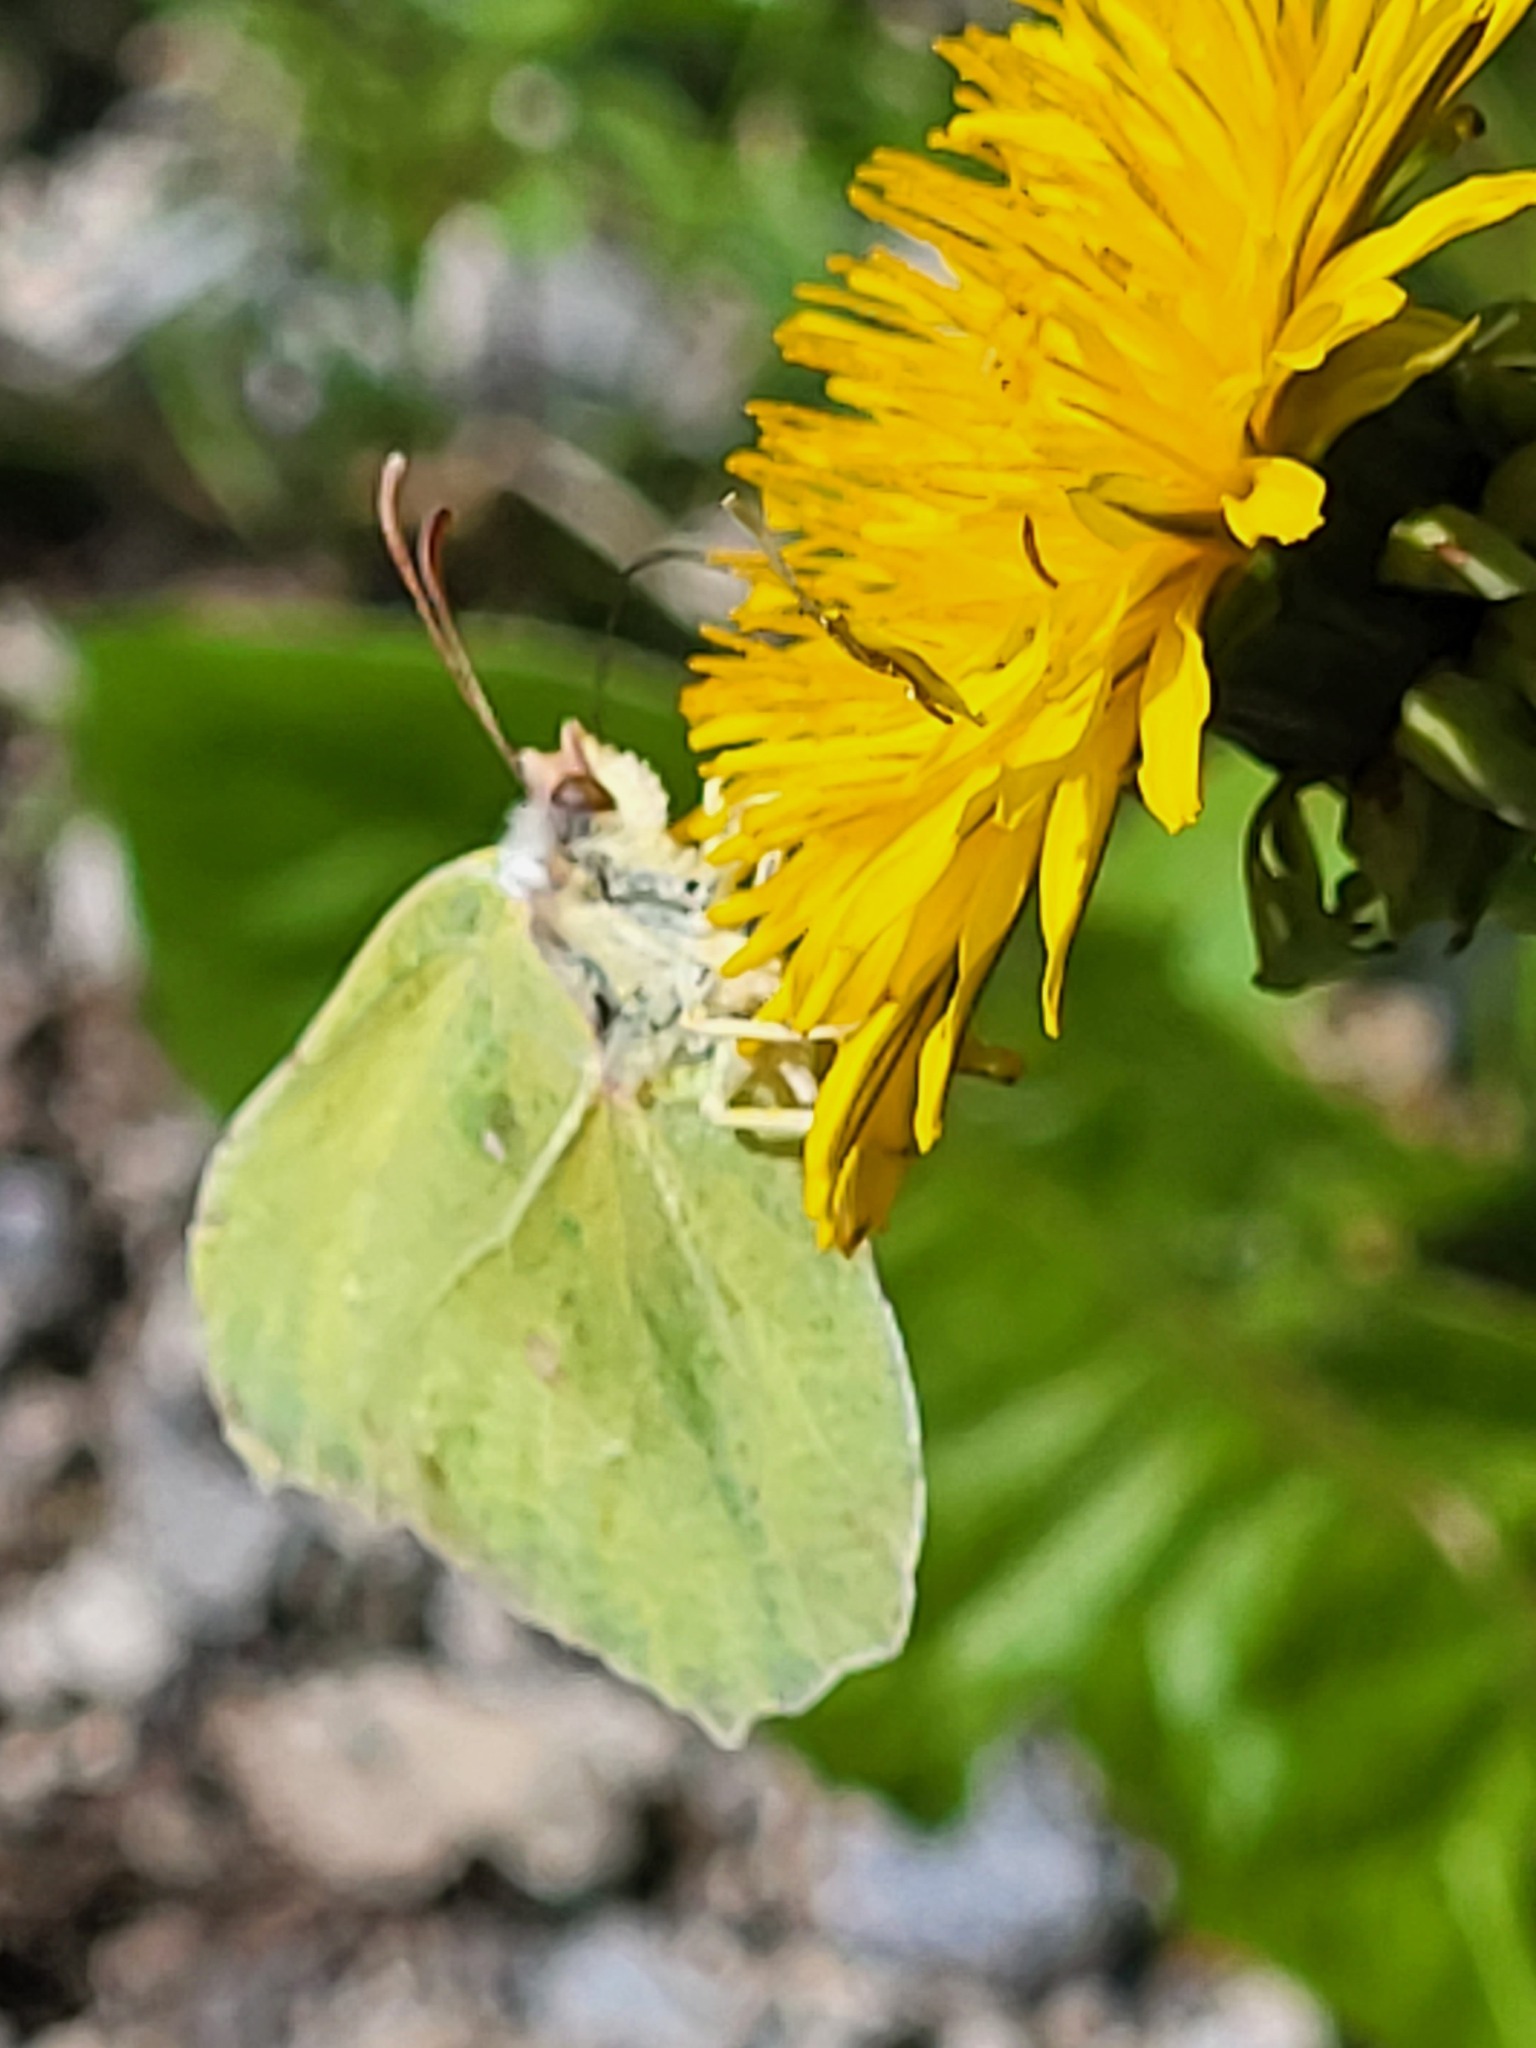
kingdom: Animalia
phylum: Arthropoda
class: Insecta
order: Lepidoptera
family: Pieridae
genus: Gonepteryx
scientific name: Gonepteryx rhamni
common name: Brimstone
